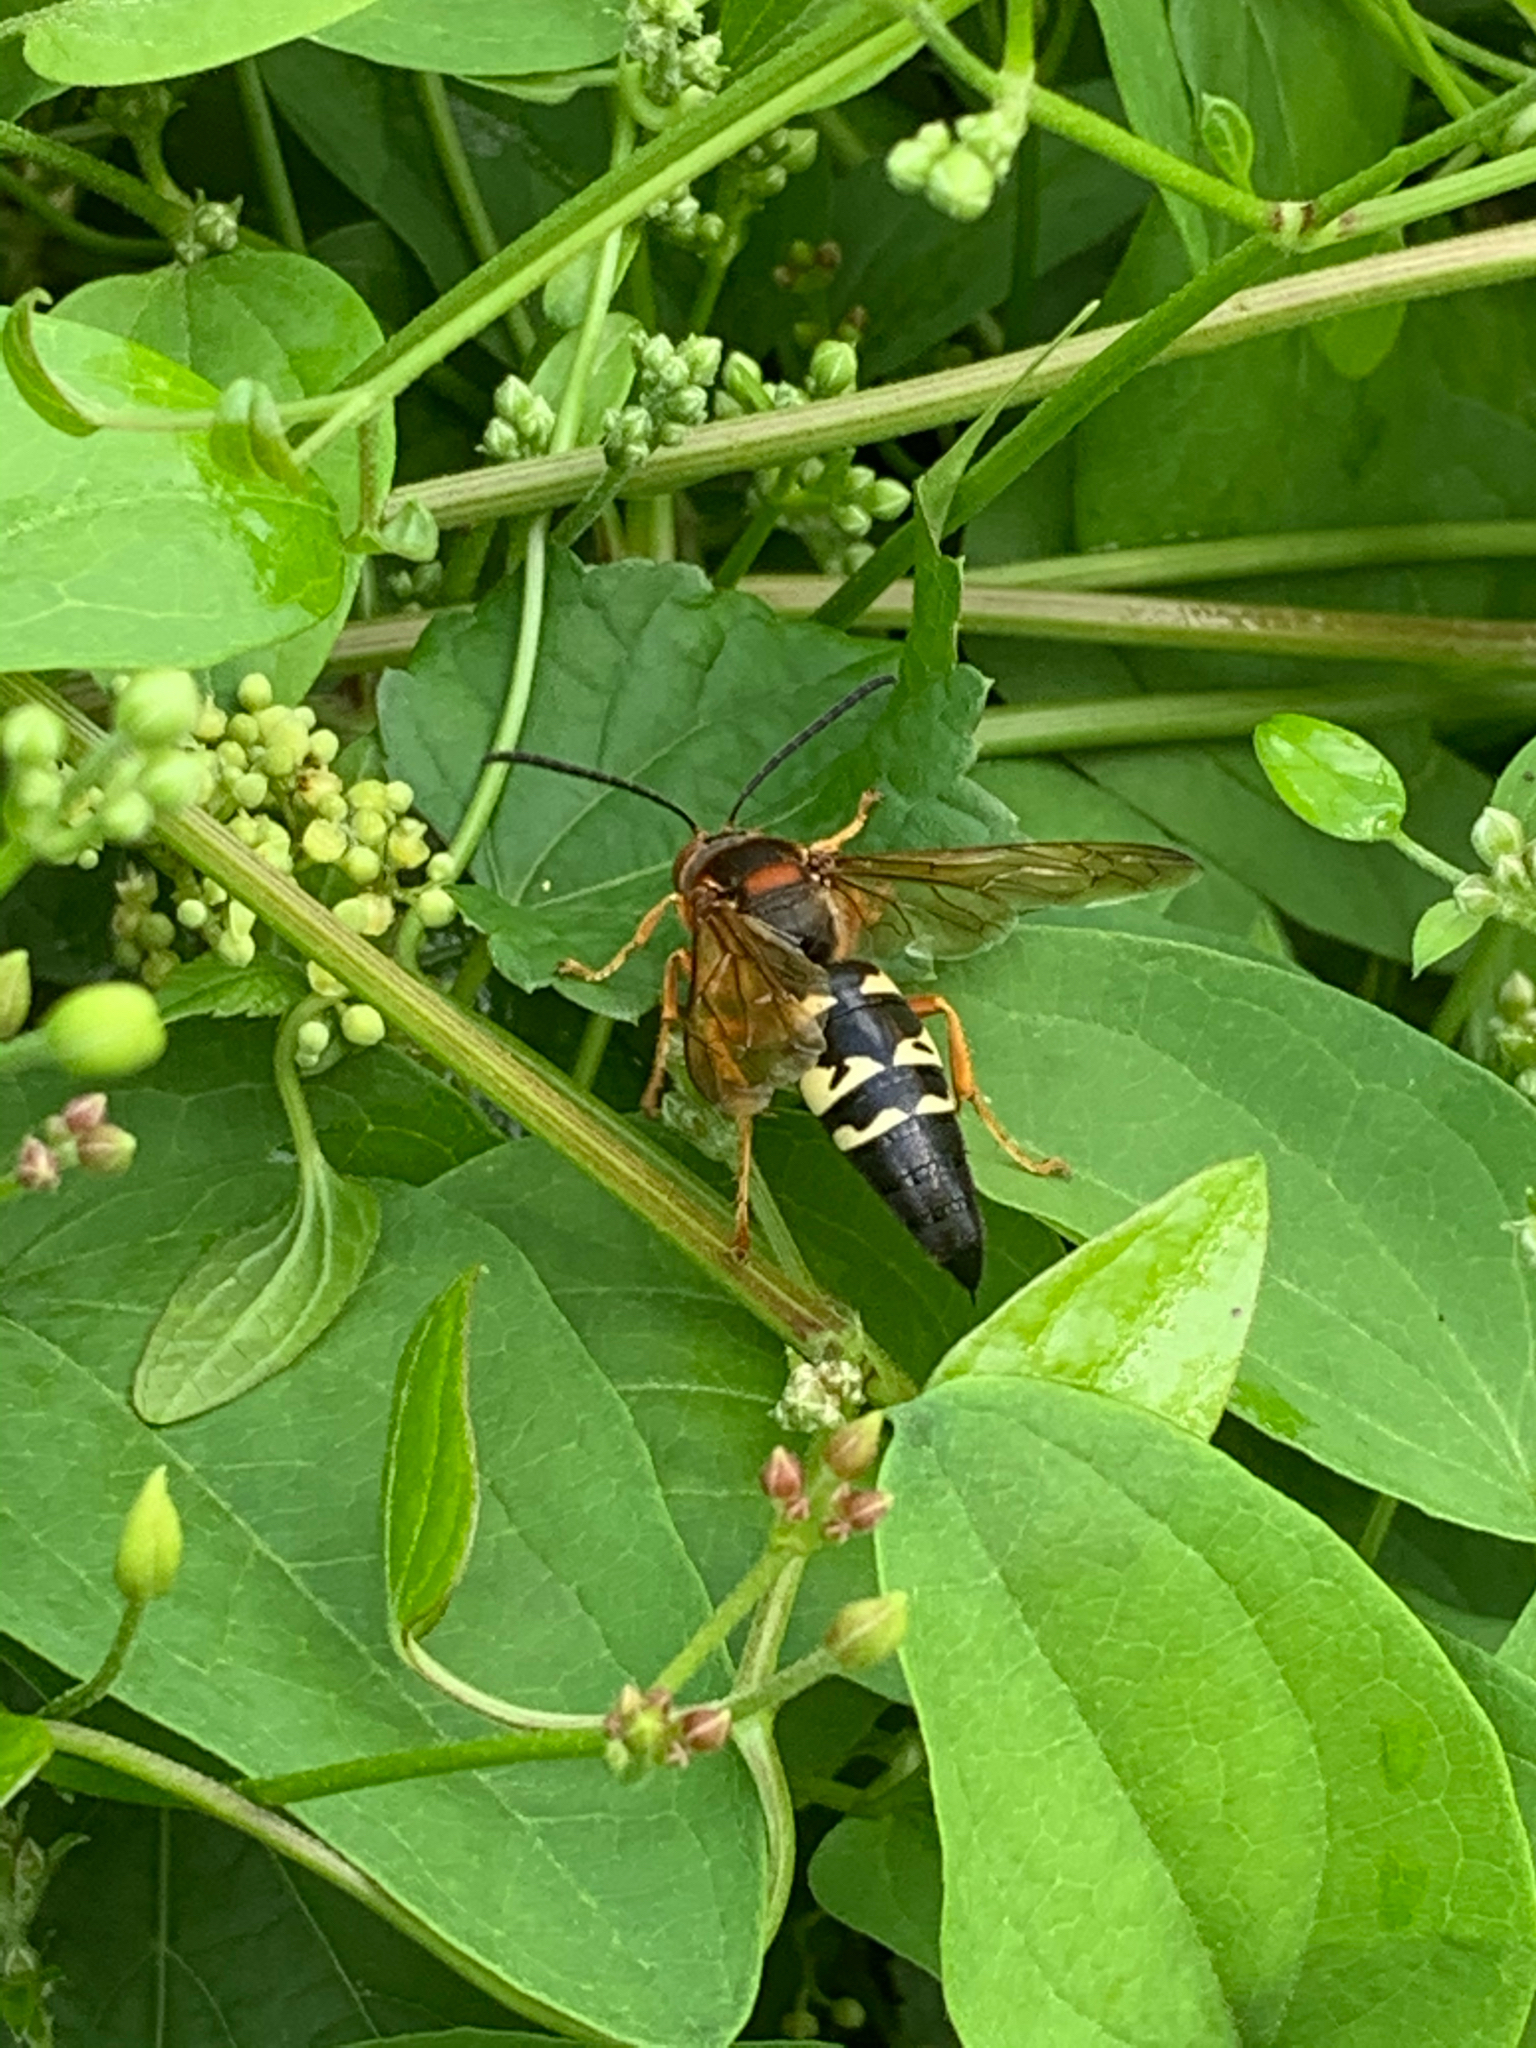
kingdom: Animalia
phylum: Arthropoda
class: Insecta
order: Hymenoptera
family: Crabronidae
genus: Sphecius
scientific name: Sphecius speciosus
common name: Cicada killer
